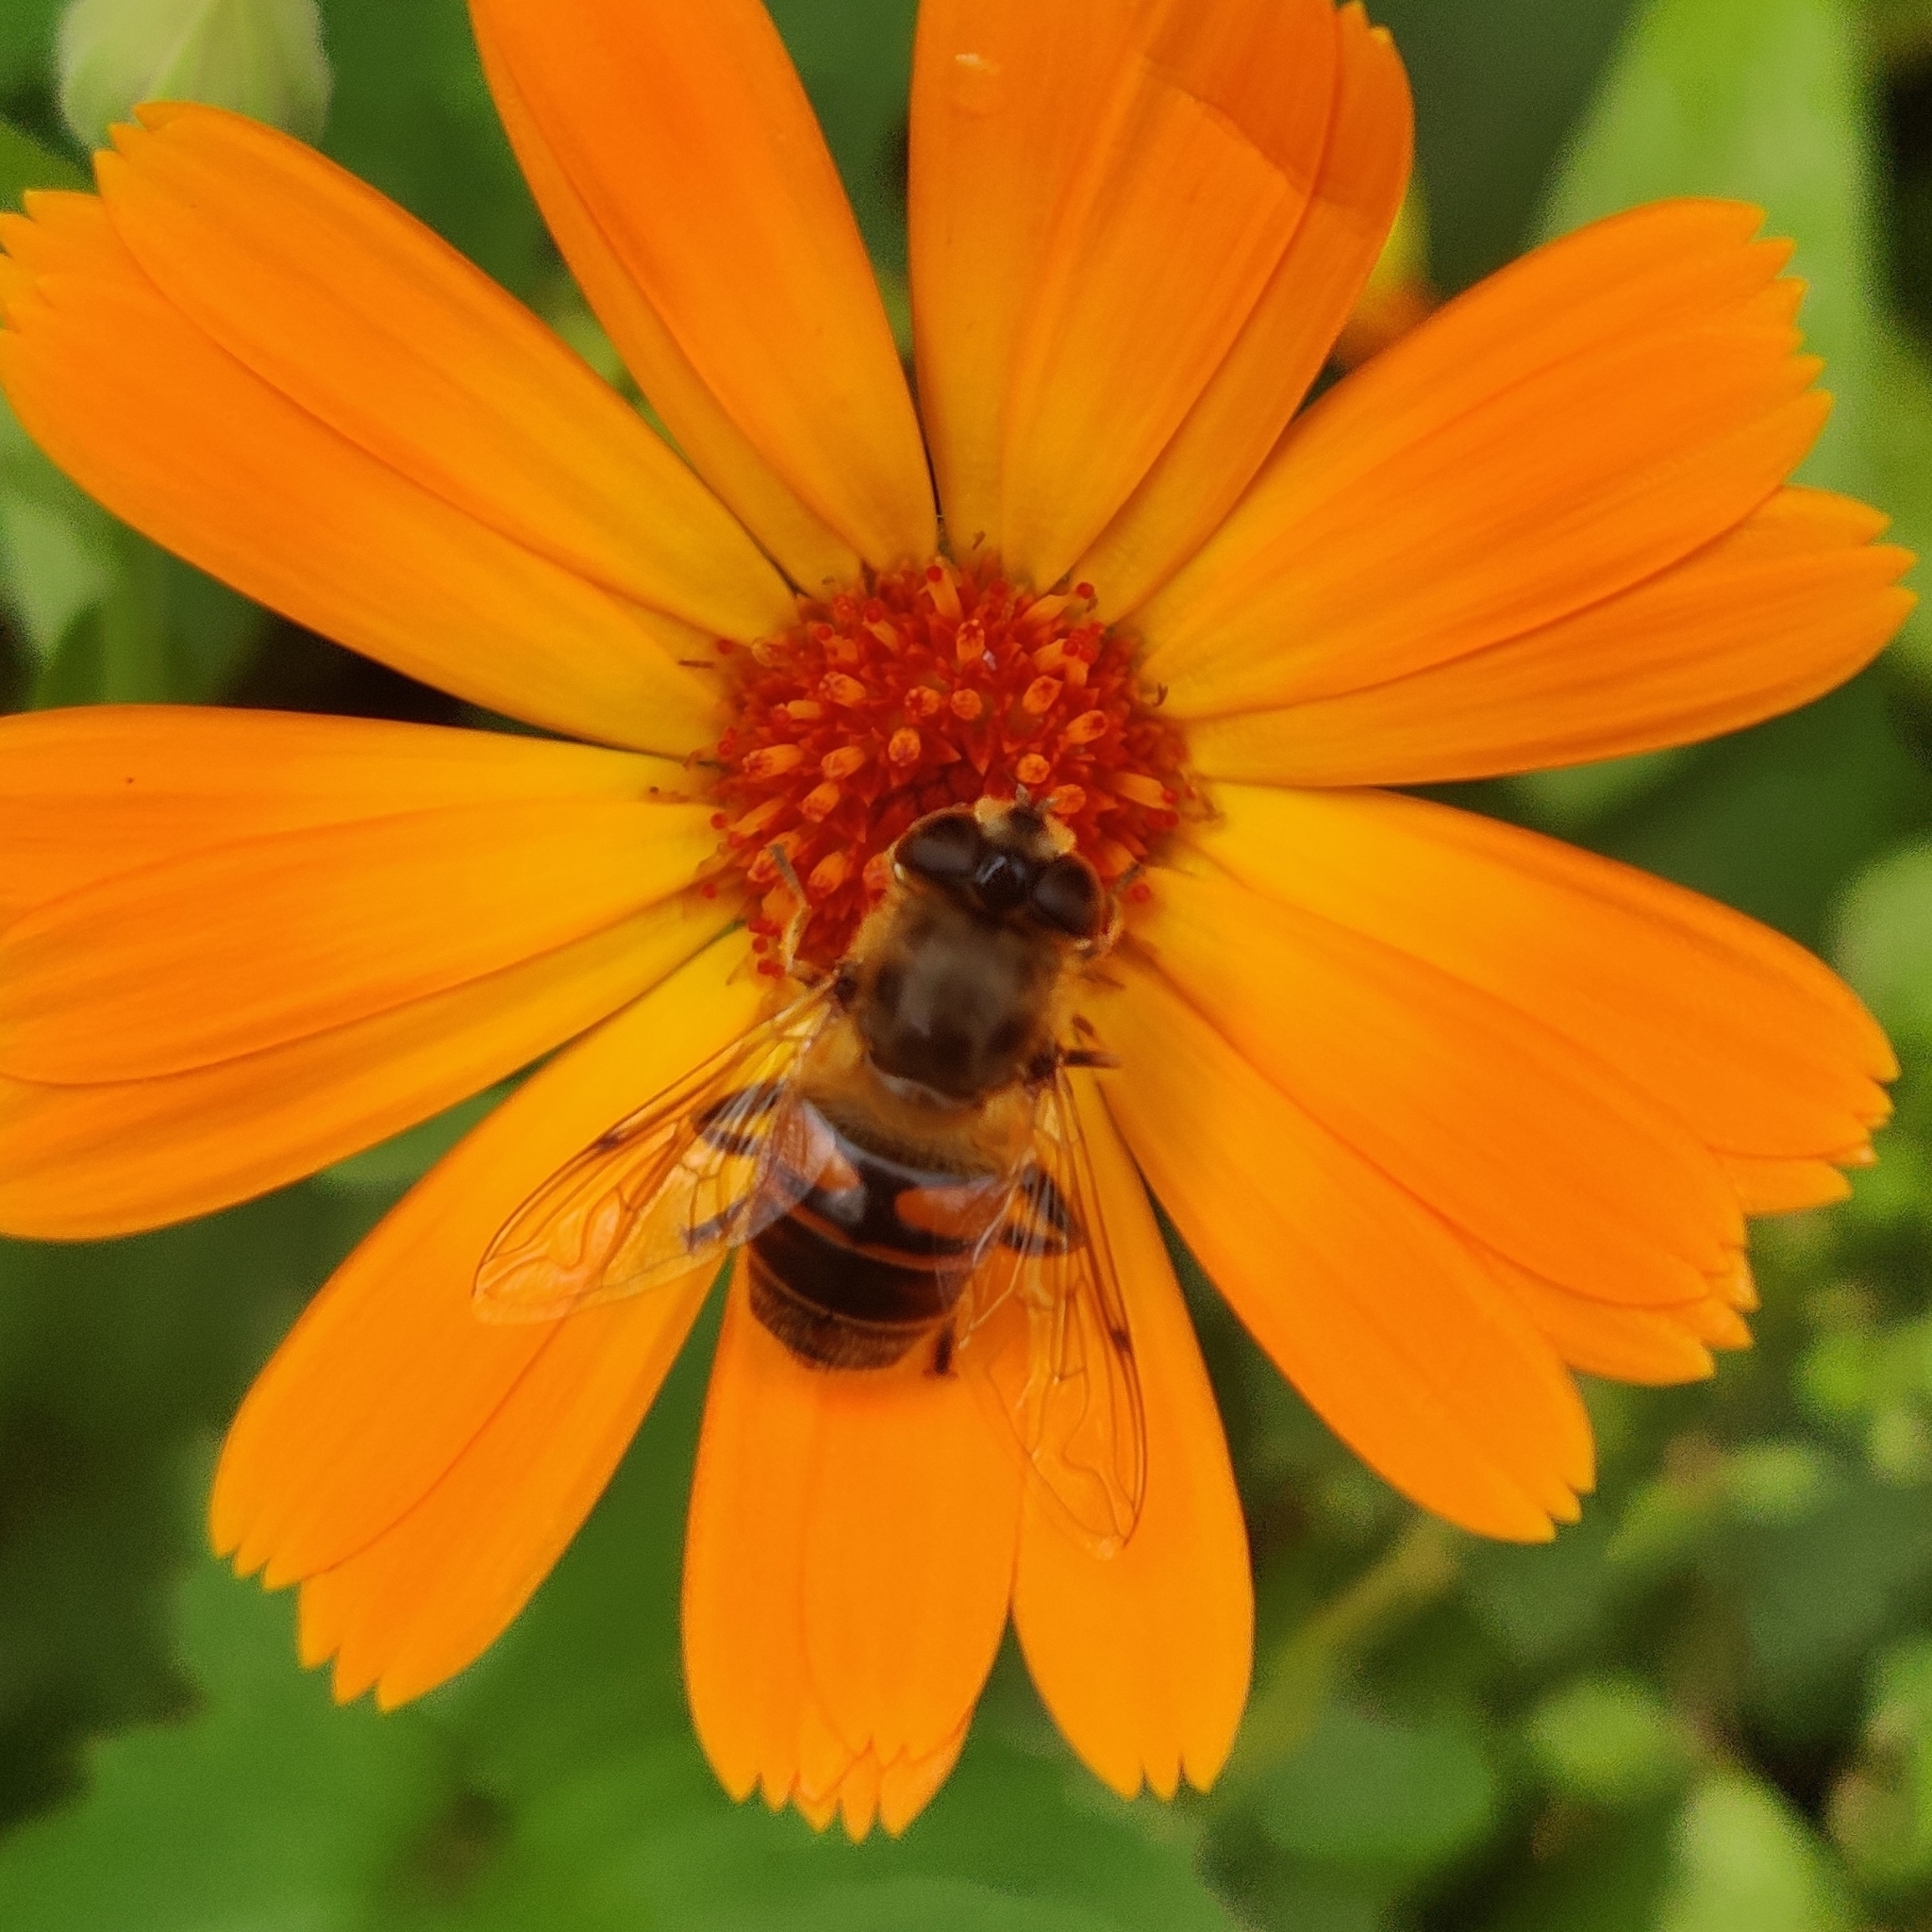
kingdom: Animalia
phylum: Arthropoda
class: Insecta
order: Diptera
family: Syrphidae
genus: Eristalis
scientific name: Eristalis tenax
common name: Drone fly
